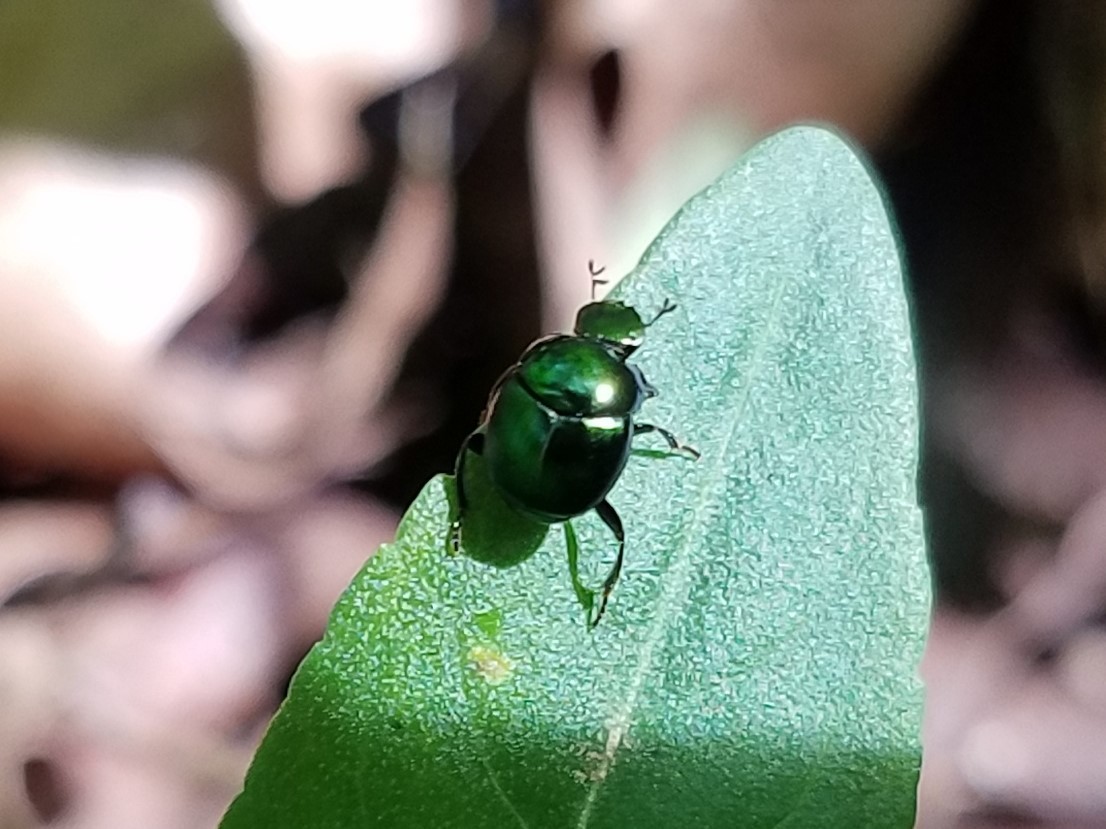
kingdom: Animalia
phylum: Arthropoda
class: Insecta
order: Coleoptera
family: Scarabaeidae
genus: Canthon
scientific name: Canthon viridis
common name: Tumblebug
